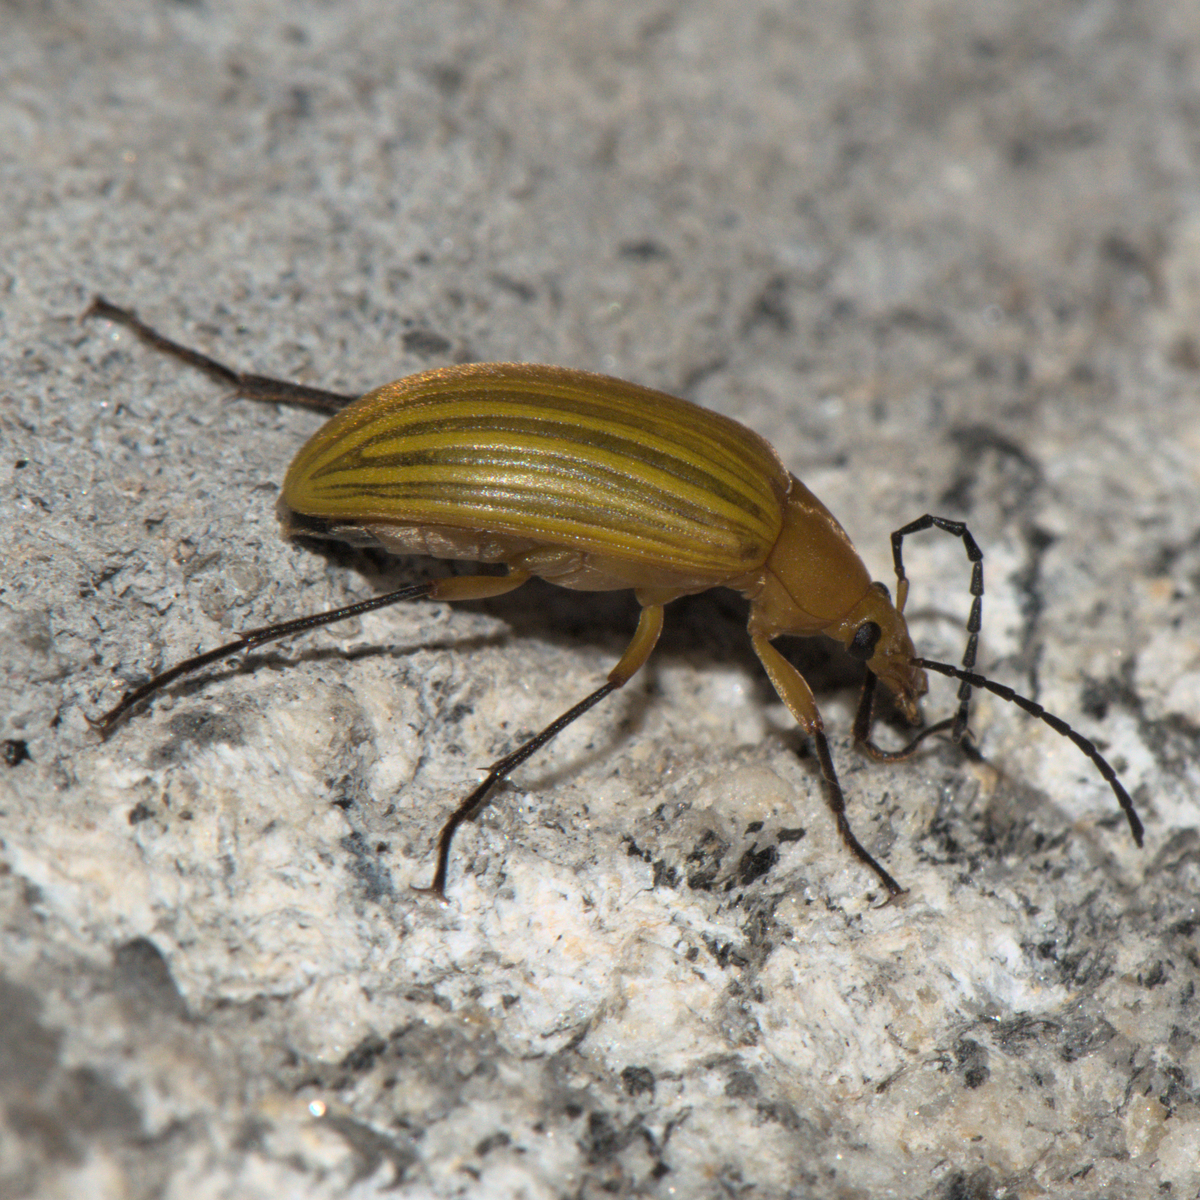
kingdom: Animalia
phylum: Arthropoda
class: Insecta
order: Coleoptera
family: Tenebrionidae
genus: Cistelomorpha
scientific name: Cistelomorpha
